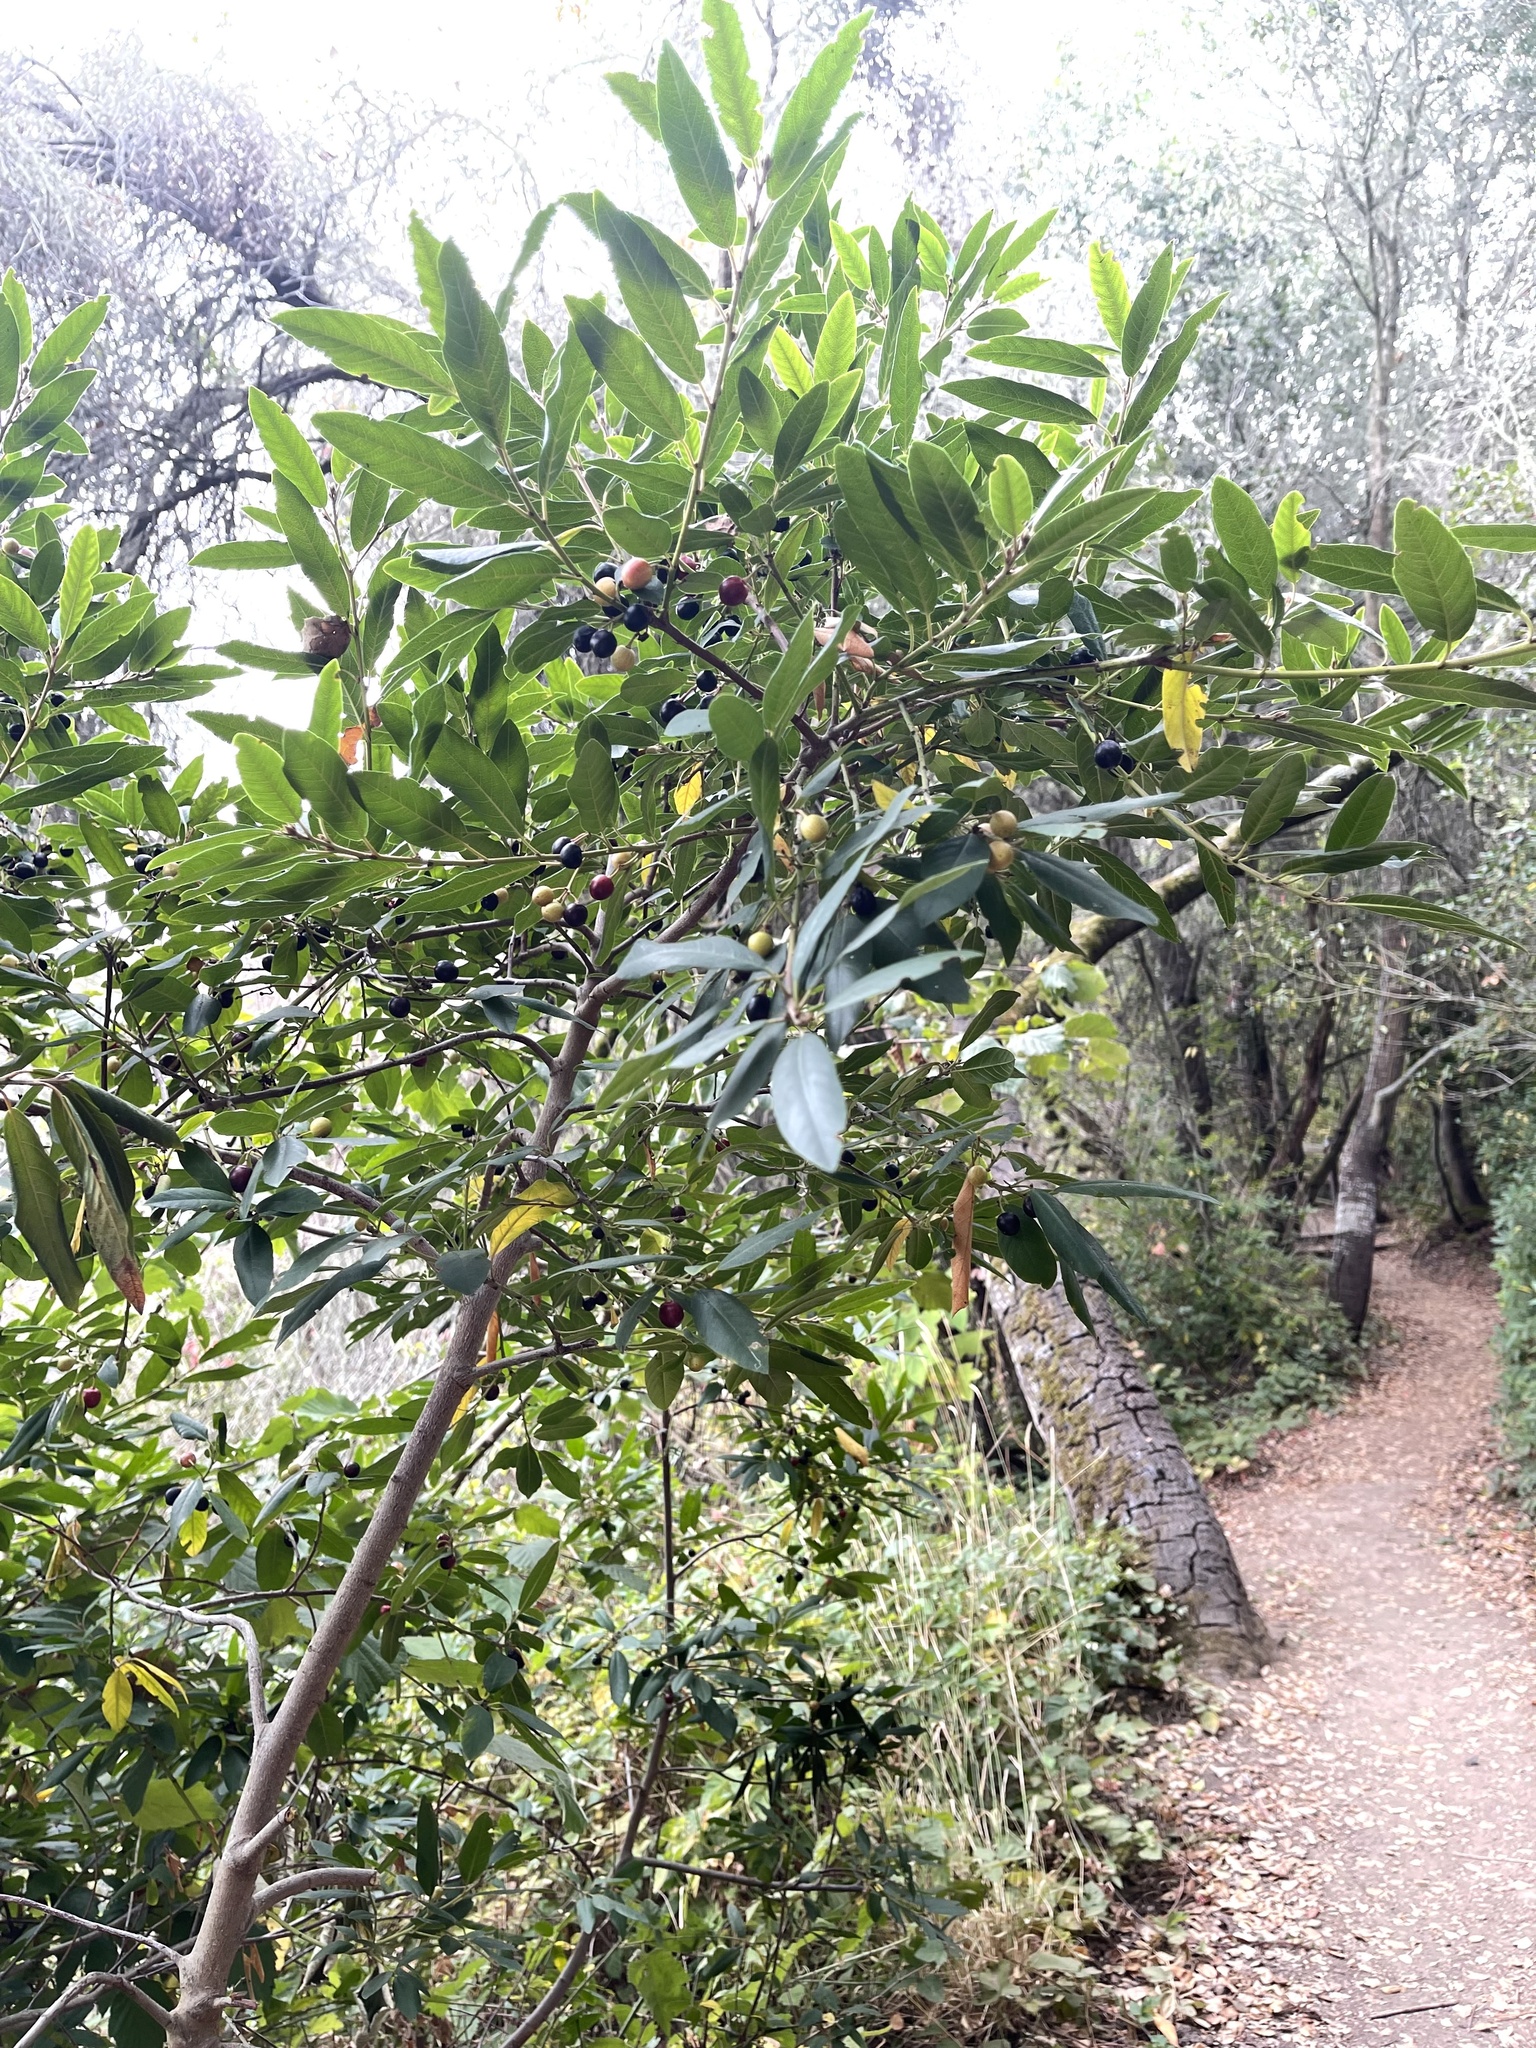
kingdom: Plantae
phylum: Tracheophyta
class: Magnoliopsida
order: Rosales
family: Rhamnaceae
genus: Frangula
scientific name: Frangula californica
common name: California buckthorn
